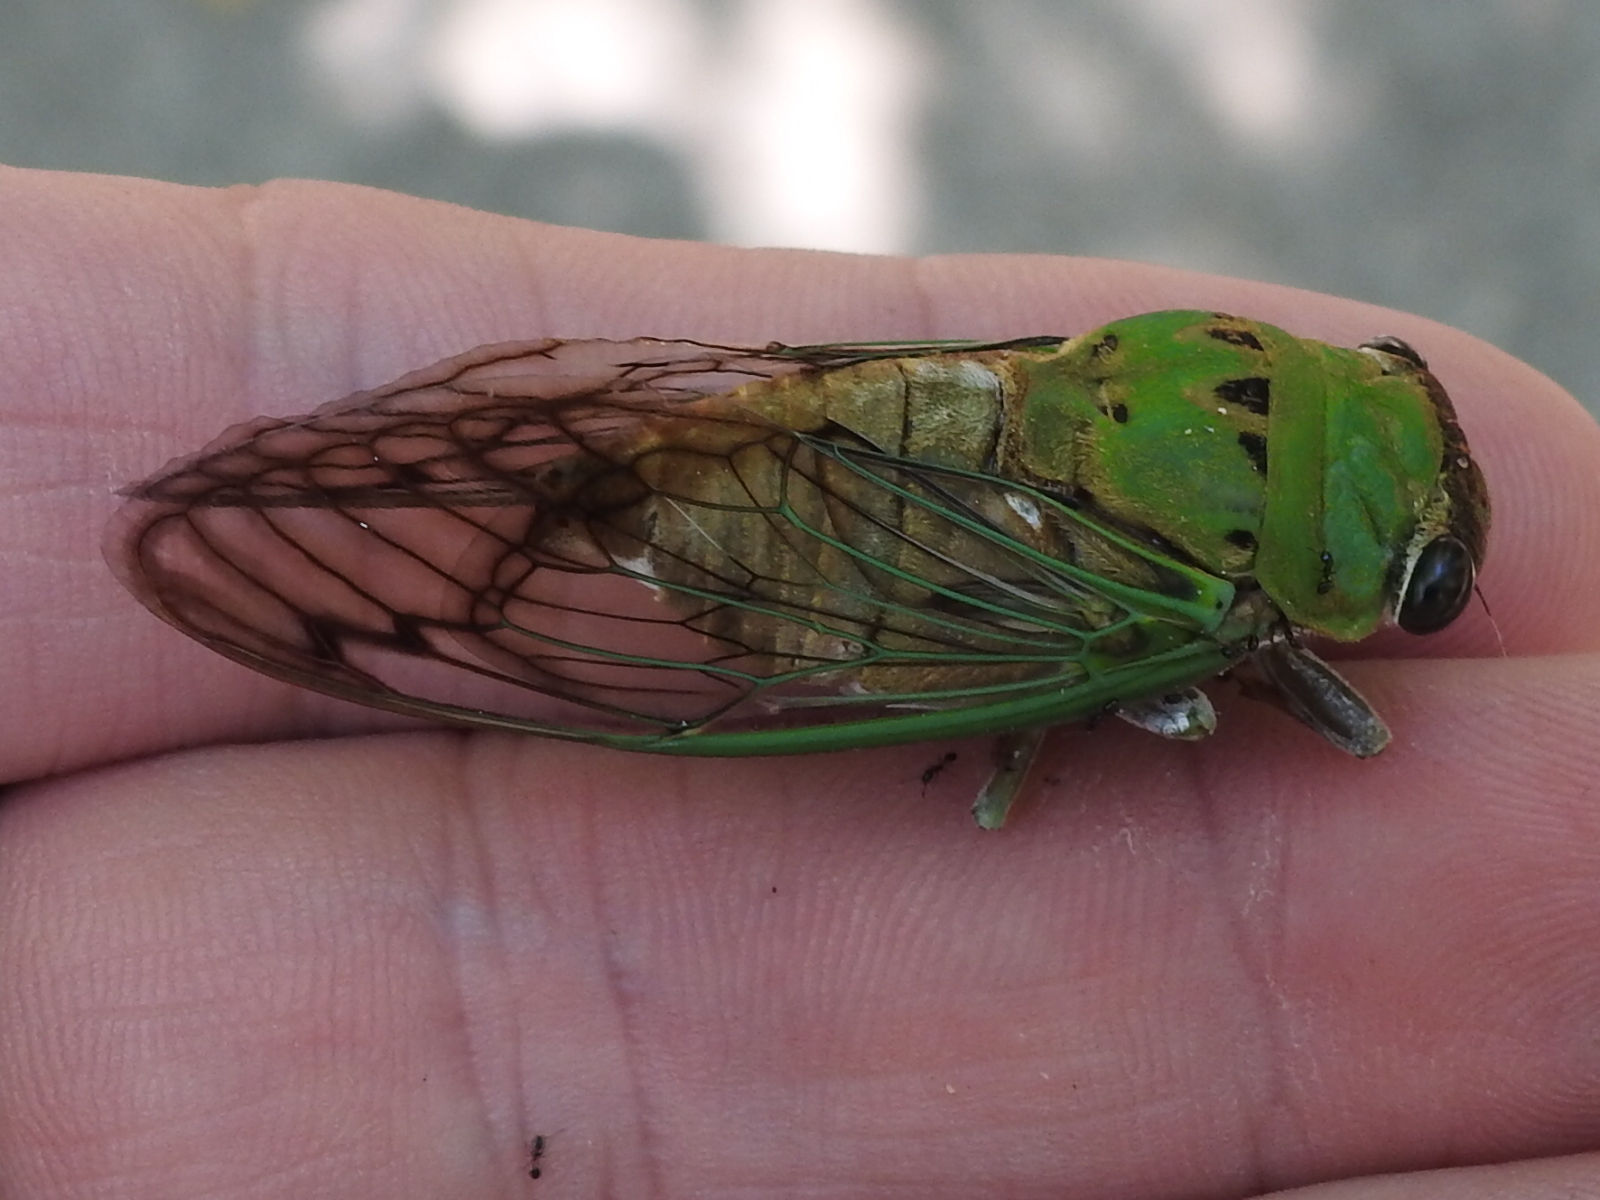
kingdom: Animalia
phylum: Arthropoda
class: Insecta
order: Hemiptera
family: Cicadidae
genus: Neotibicen
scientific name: Neotibicen superbus
